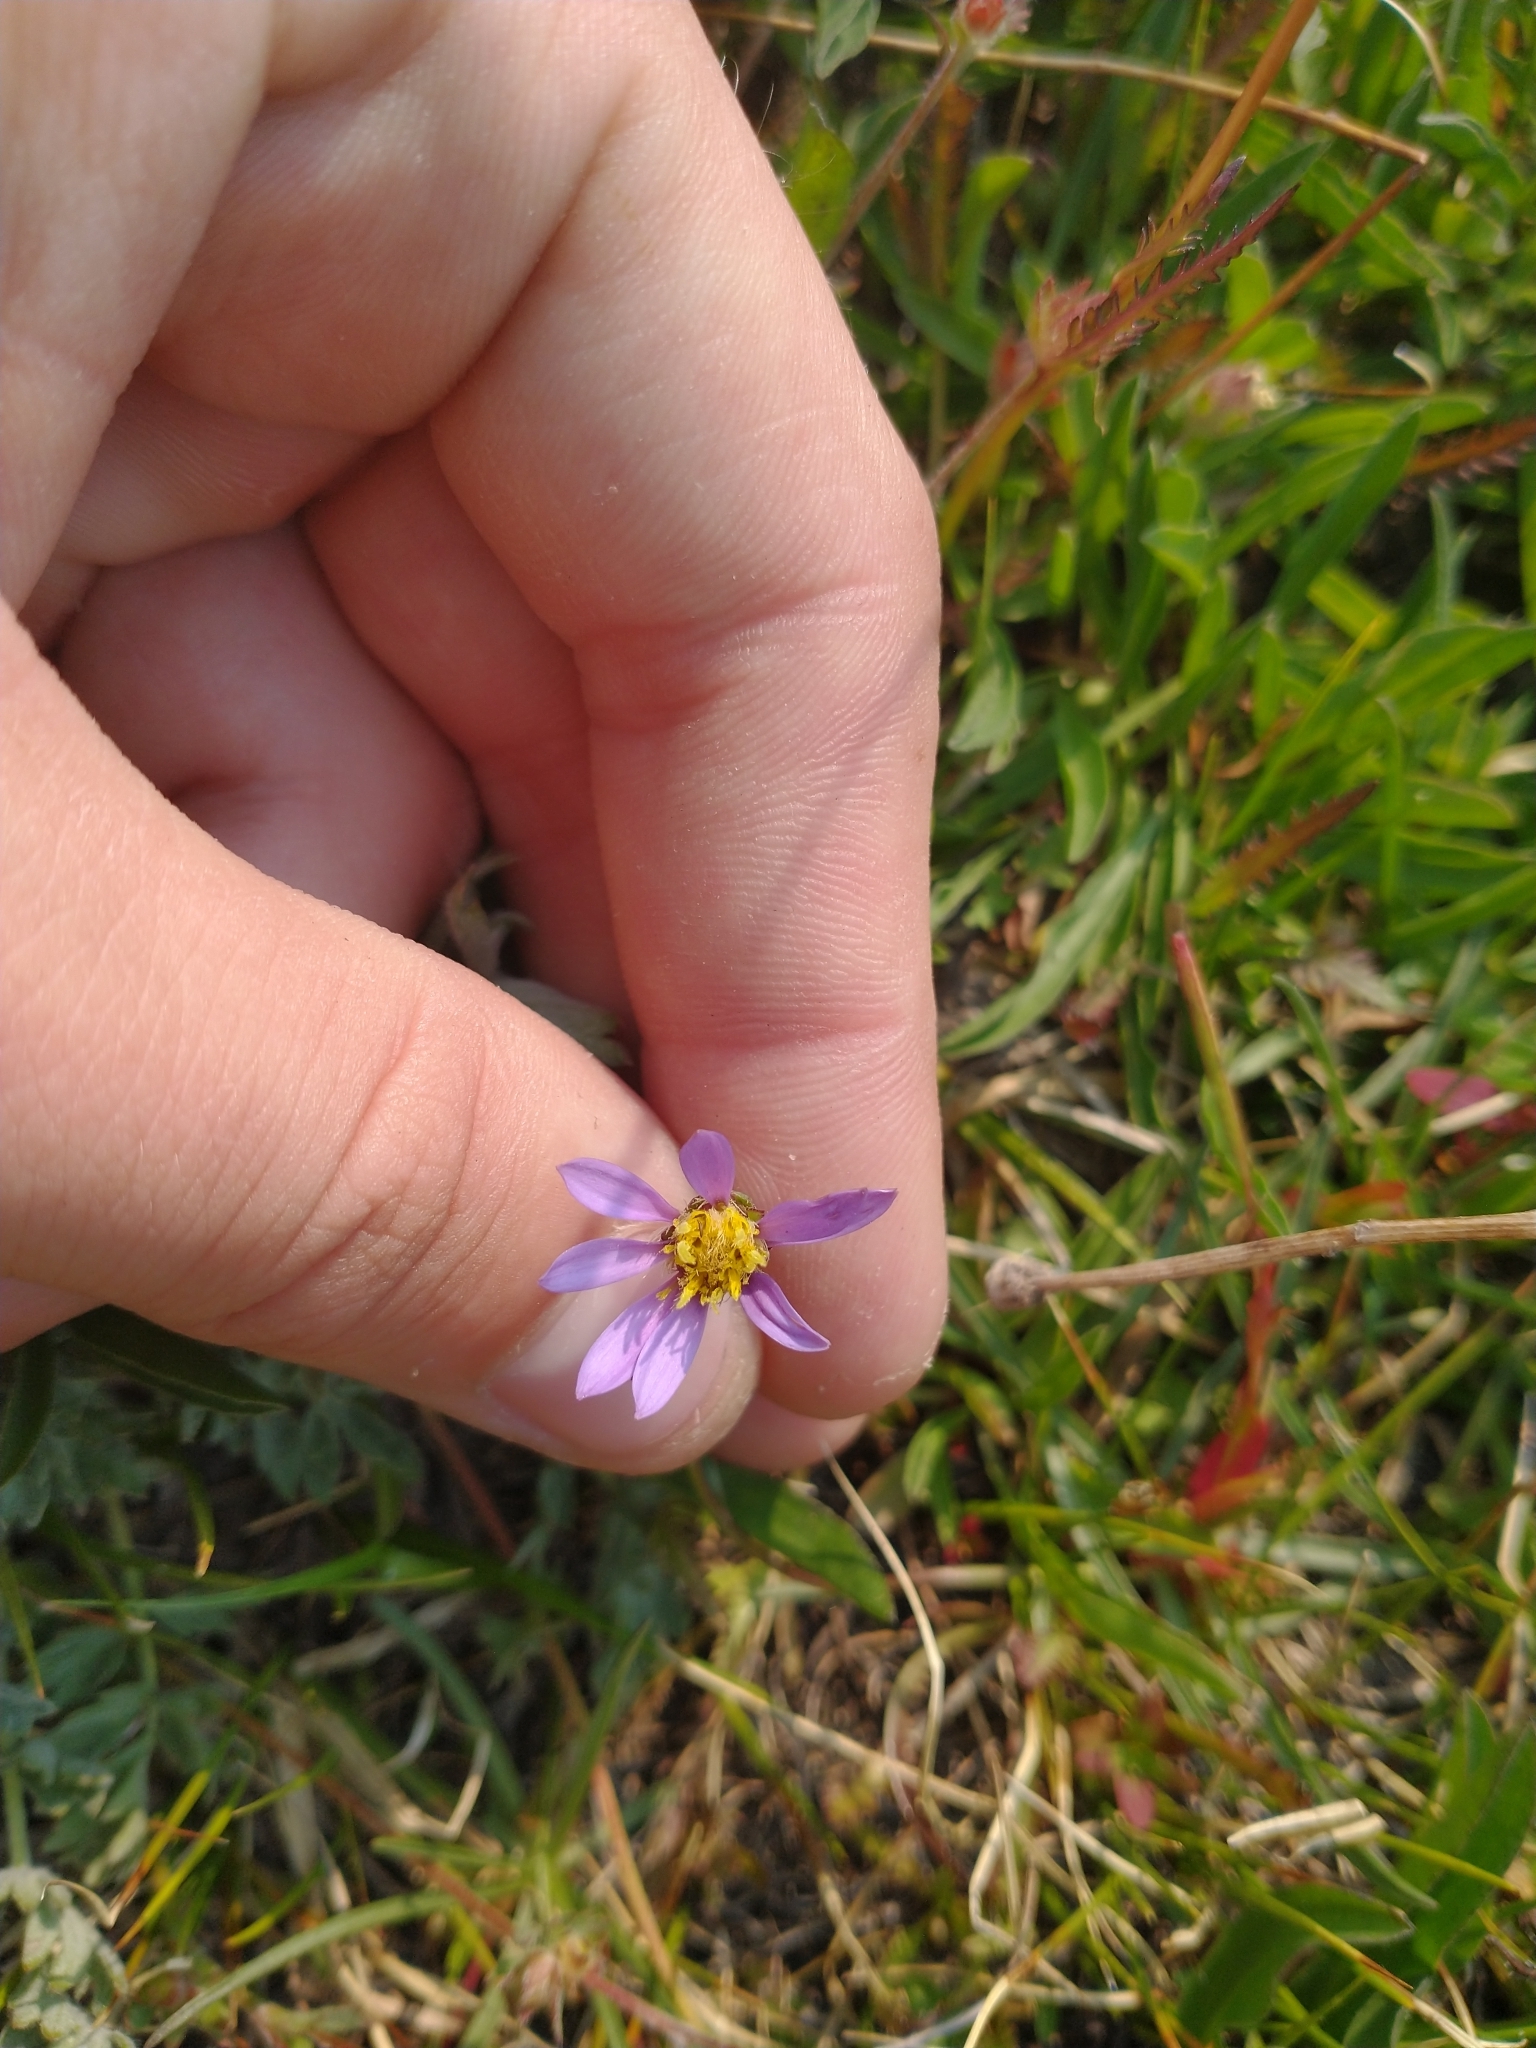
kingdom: Plantae
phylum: Tracheophyta
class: Magnoliopsida
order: Asterales
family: Asteraceae
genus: Oreostemma
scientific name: Oreostemma alpigenum
